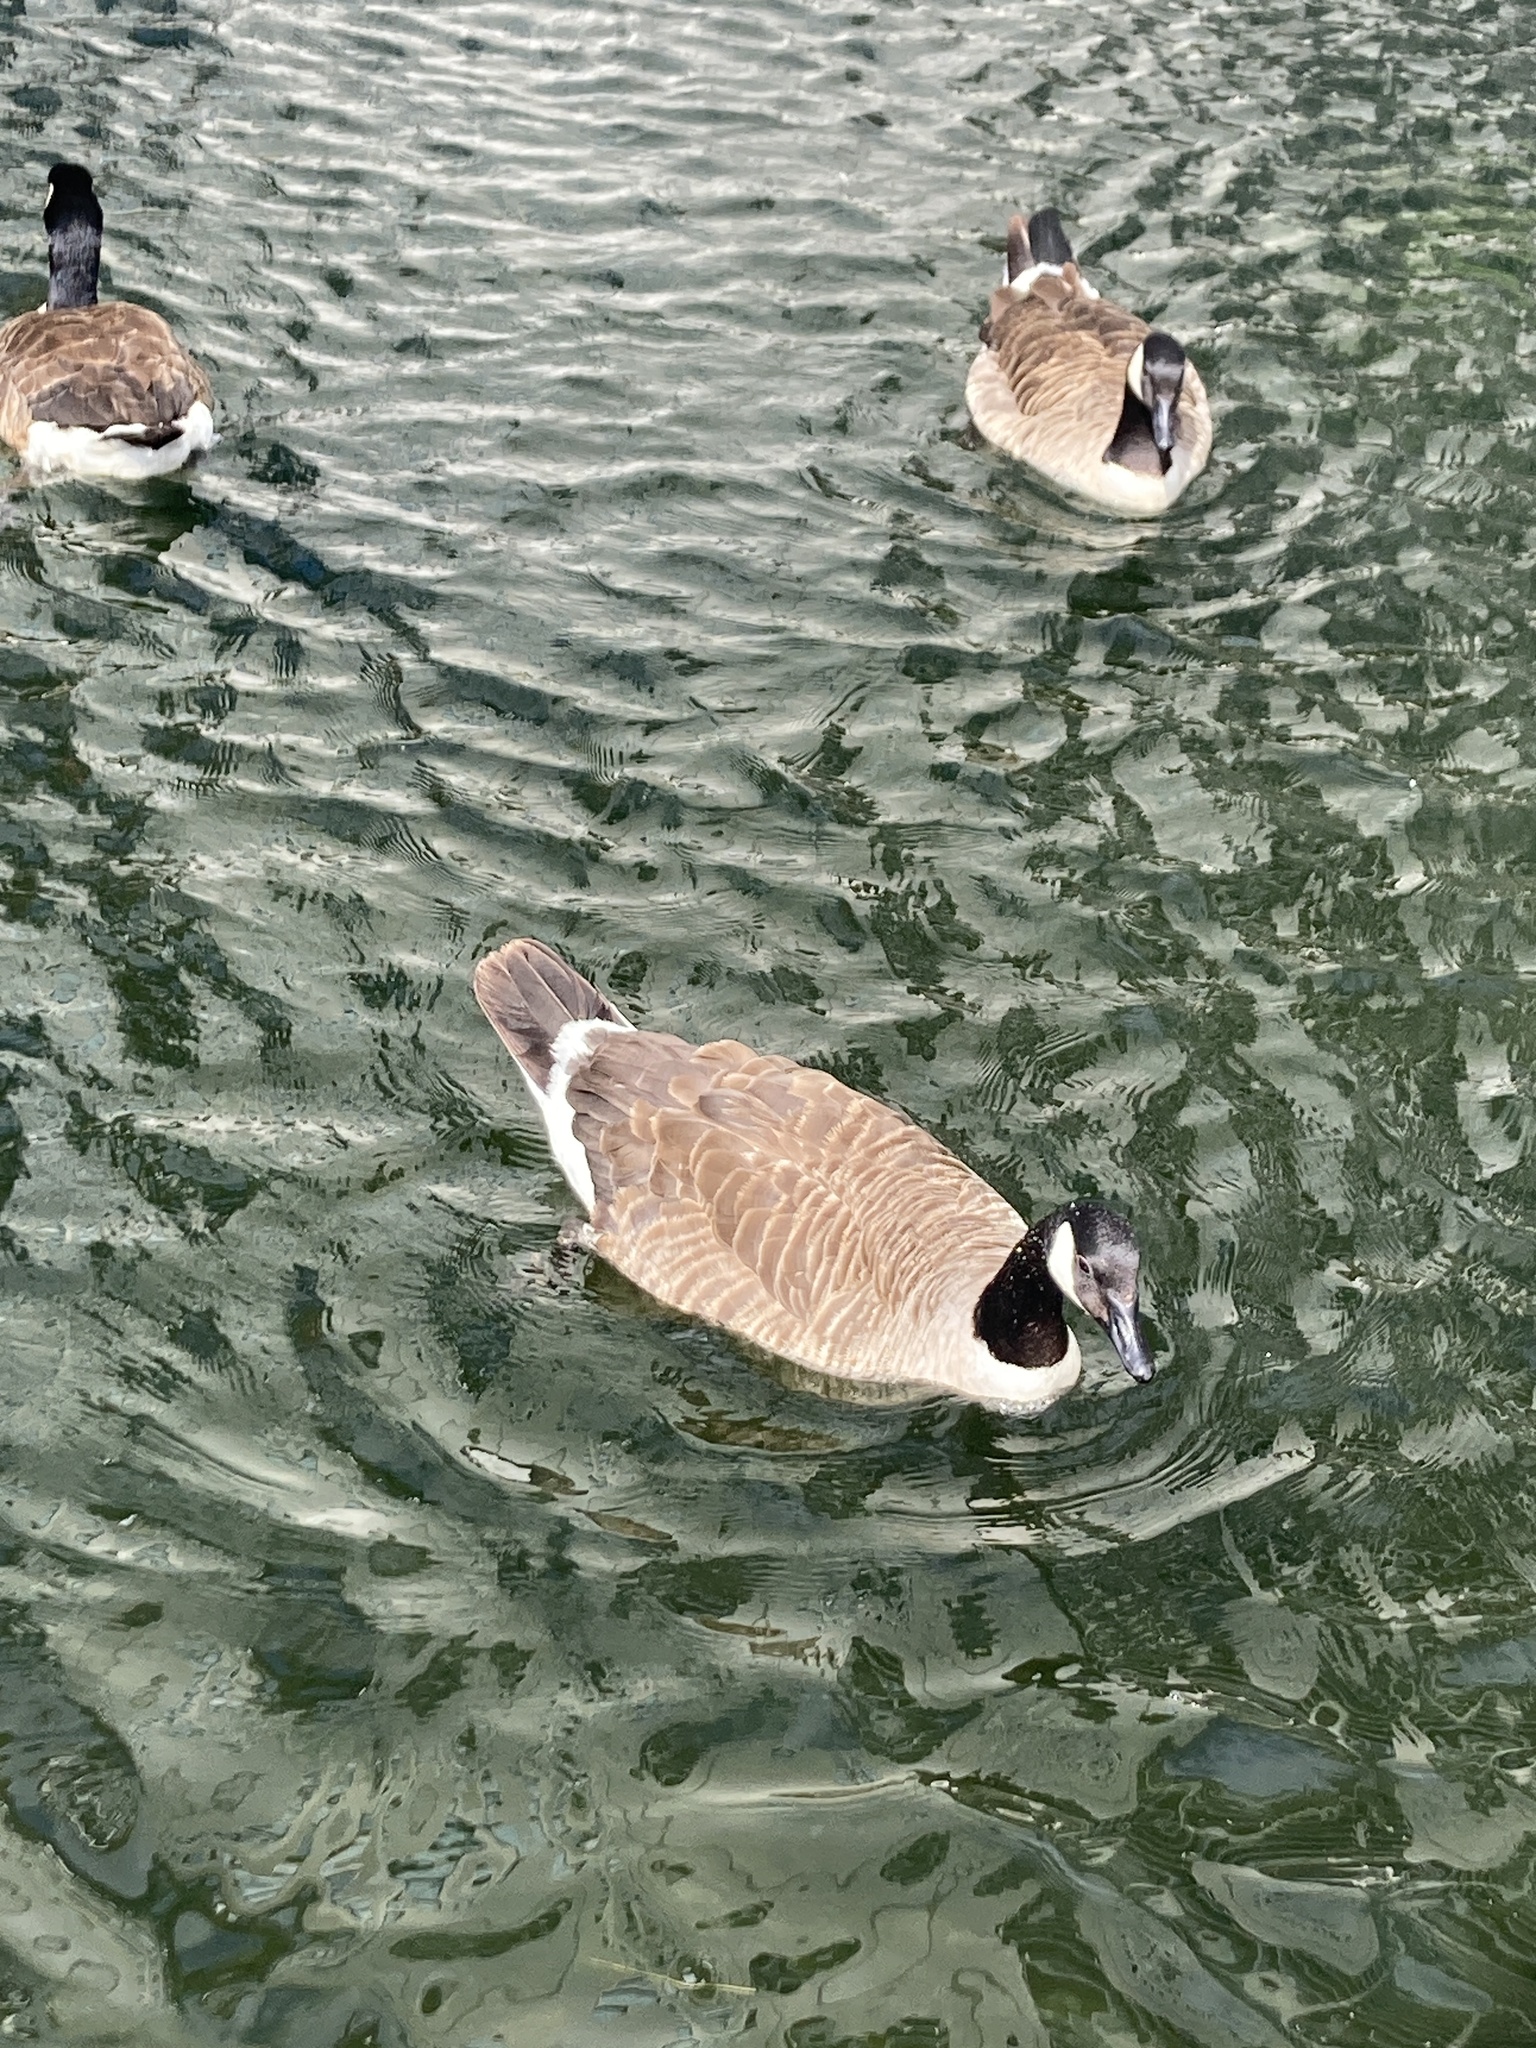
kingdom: Animalia
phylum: Chordata
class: Aves
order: Anseriformes
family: Anatidae
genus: Branta
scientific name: Branta canadensis
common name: Canada goose
